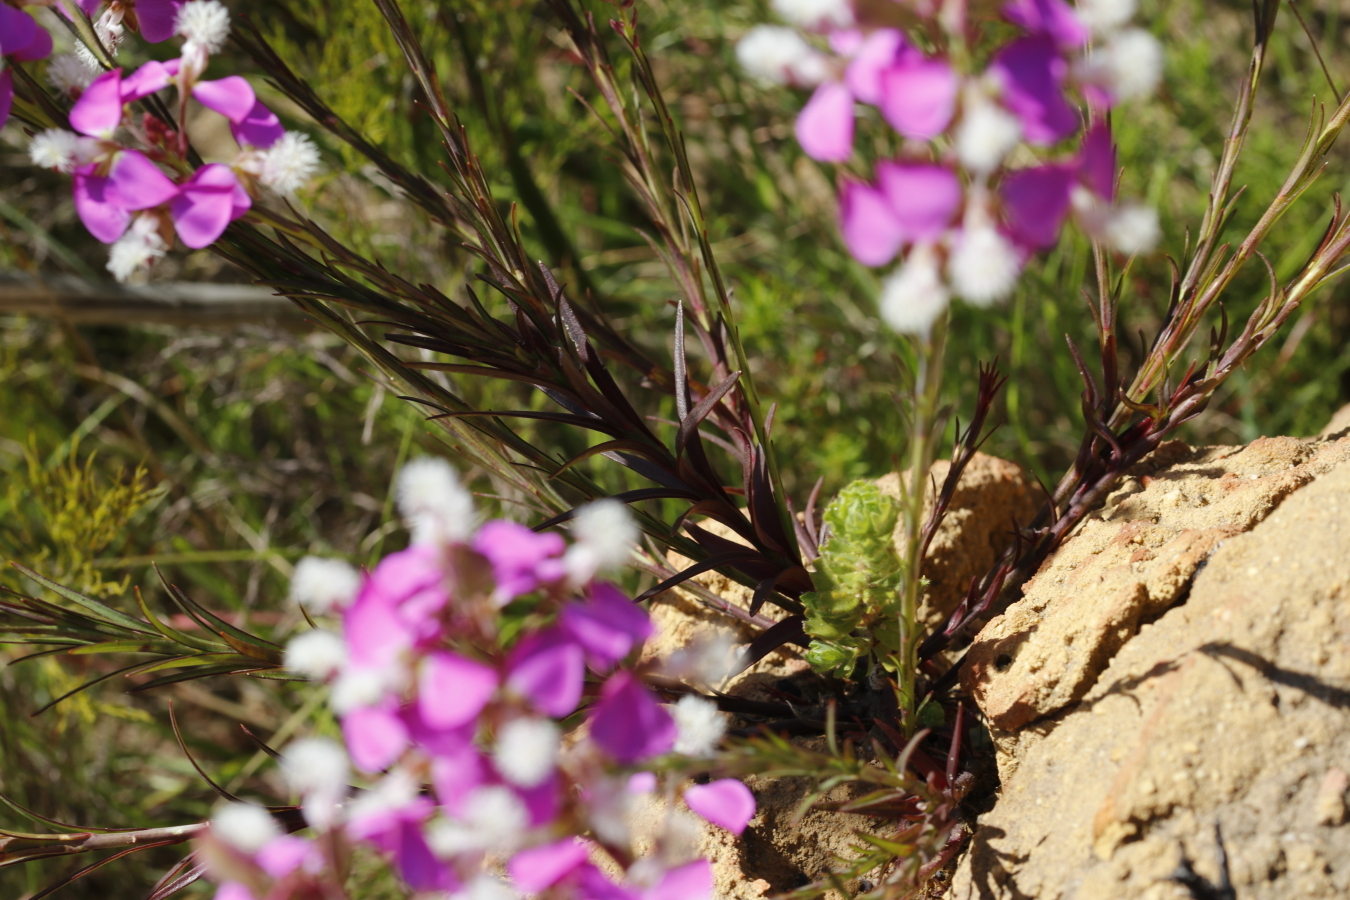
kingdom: Plantae
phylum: Tracheophyta
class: Magnoliopsida
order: Fabales
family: Polygalaceae
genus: Polygala
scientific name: Polygala bracteolata
